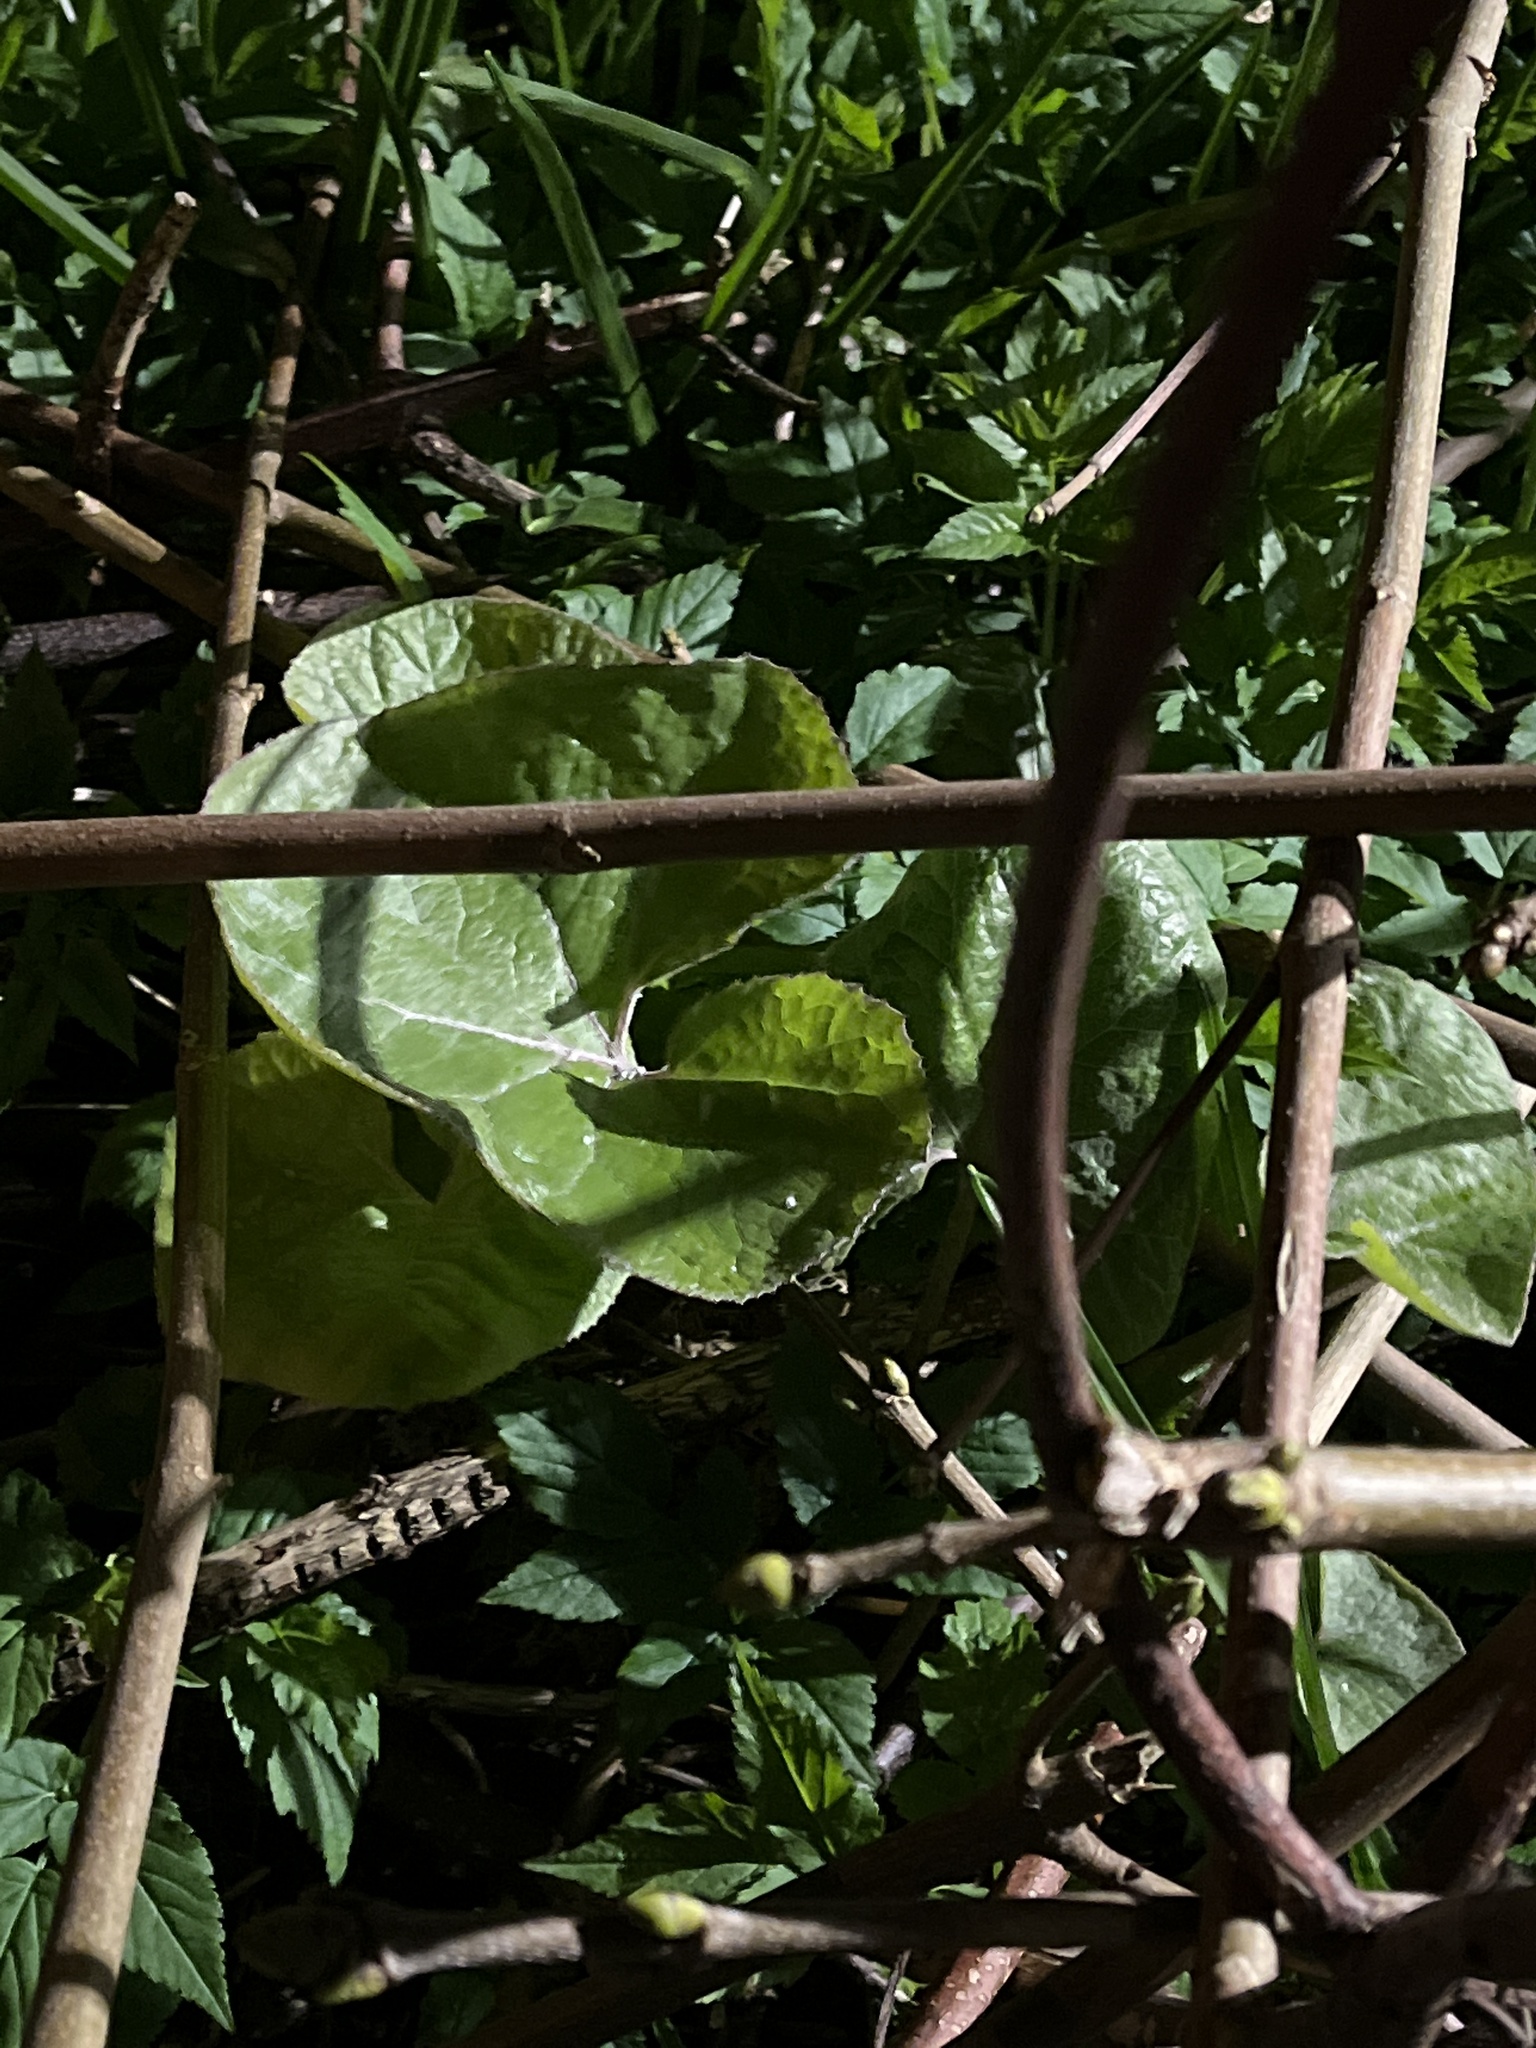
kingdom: Plantae
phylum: Tracheophyta
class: Magnoliopsida
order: Asterales
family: Asteraceae
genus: Petasites
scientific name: Petasites pyrenaicus
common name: Winter heliotrope
